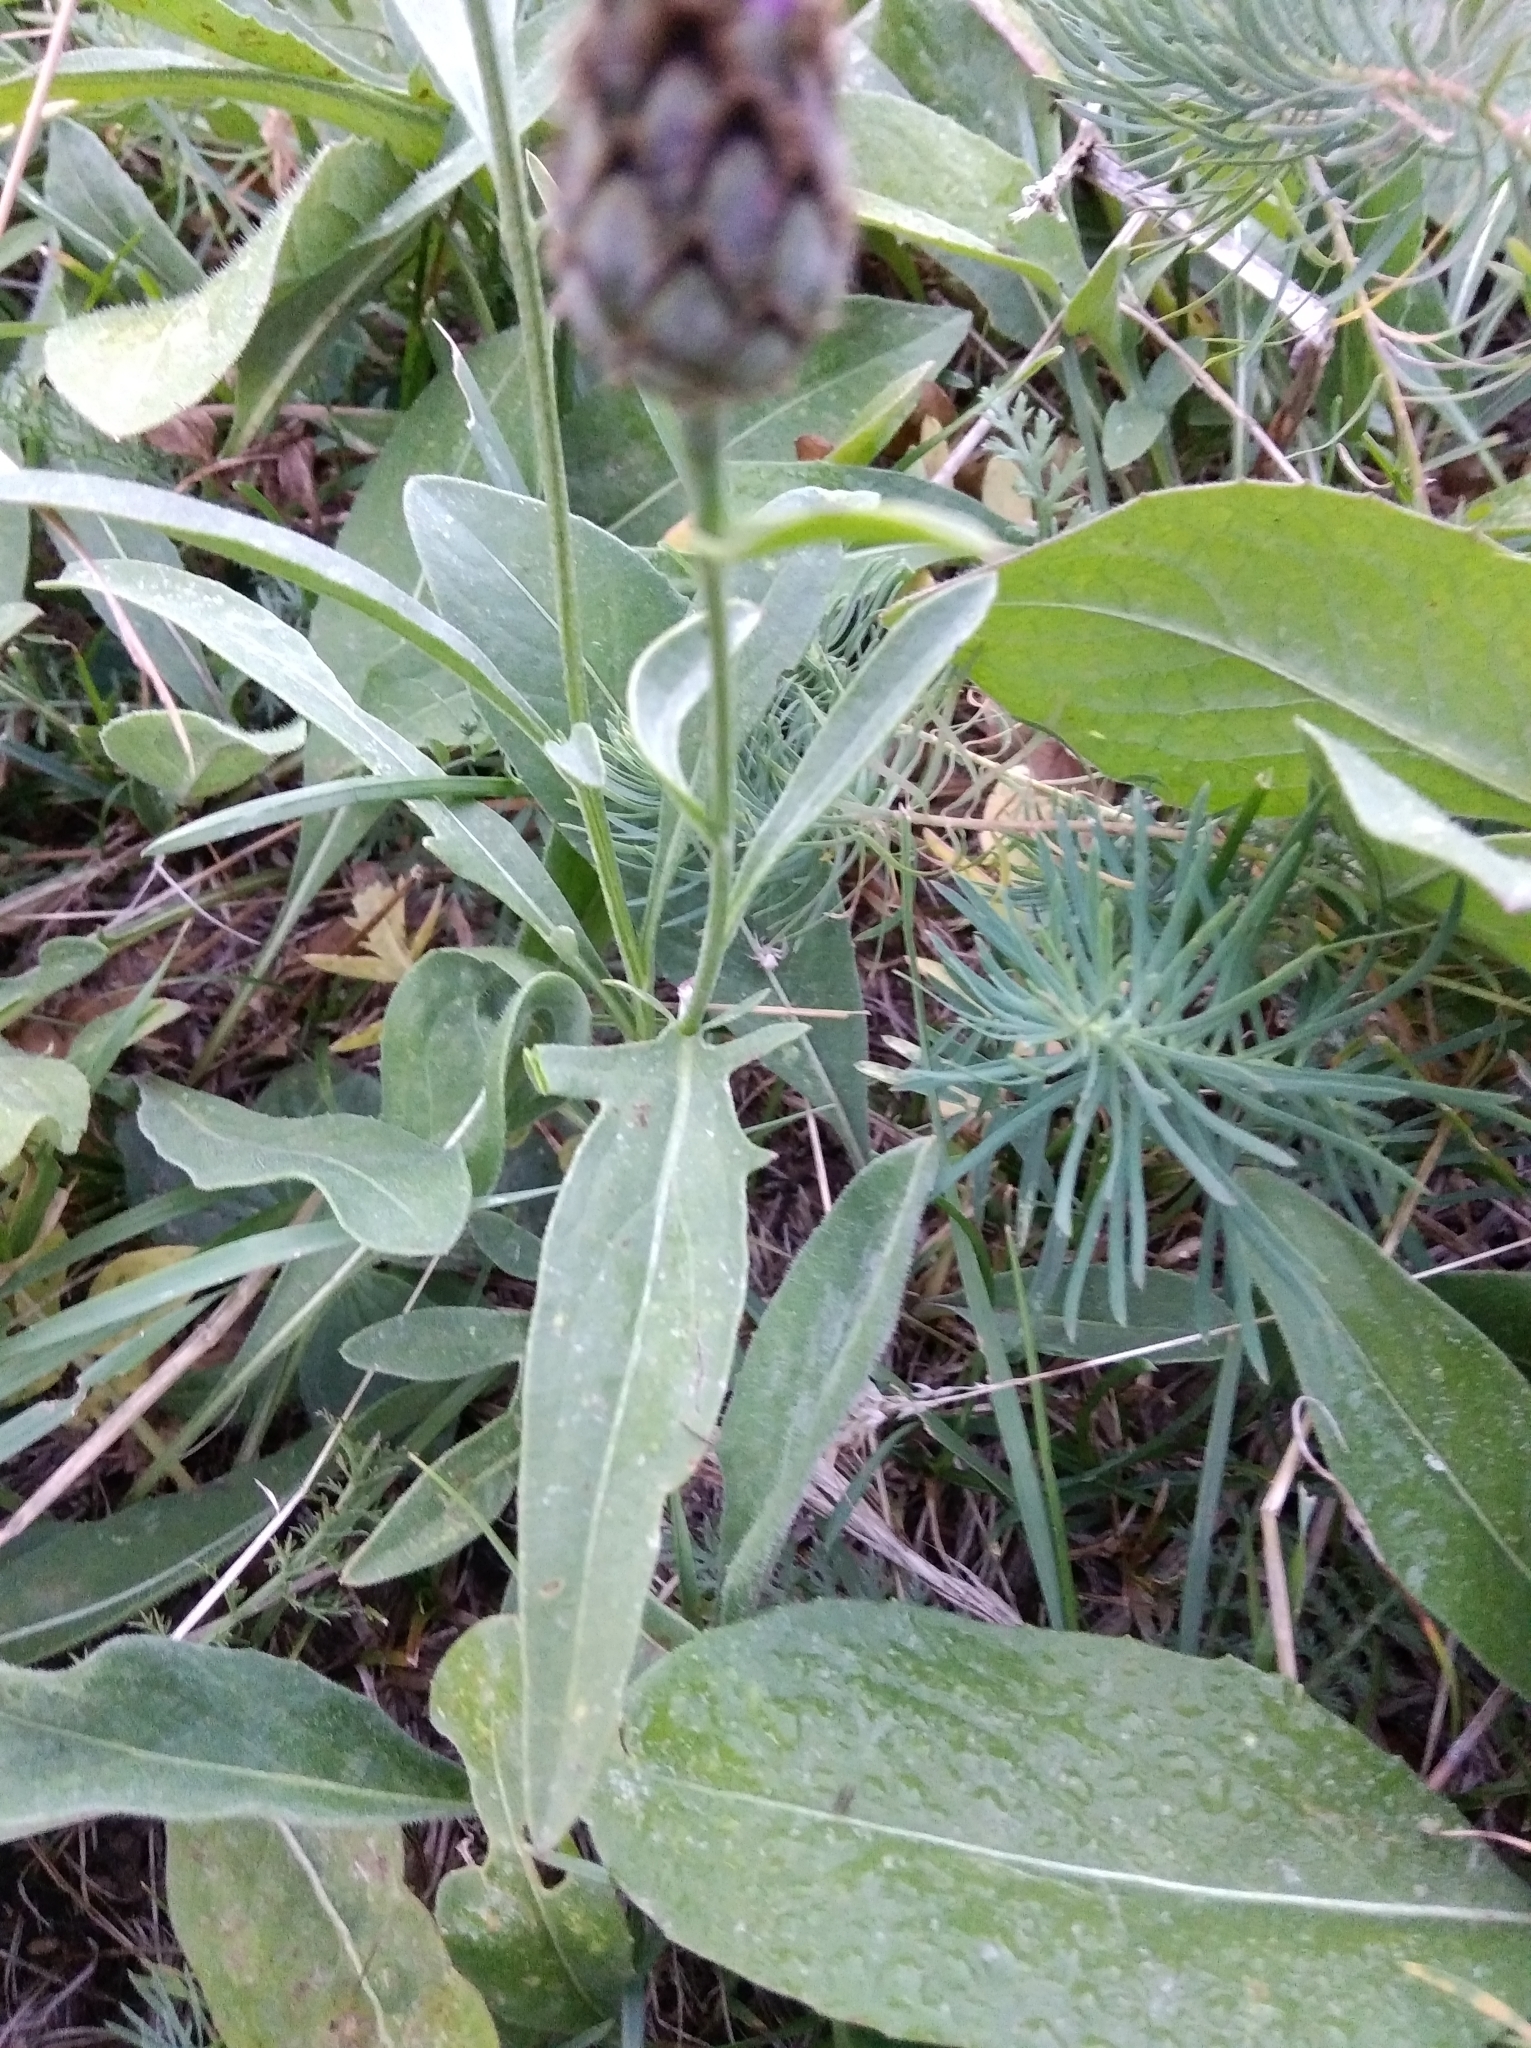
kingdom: Plantae
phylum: Tracheophyta
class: Magnoliopsida
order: Asterales
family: Asteraceae
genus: Centaurea
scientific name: Centaurea jacea
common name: Brown knapweed
